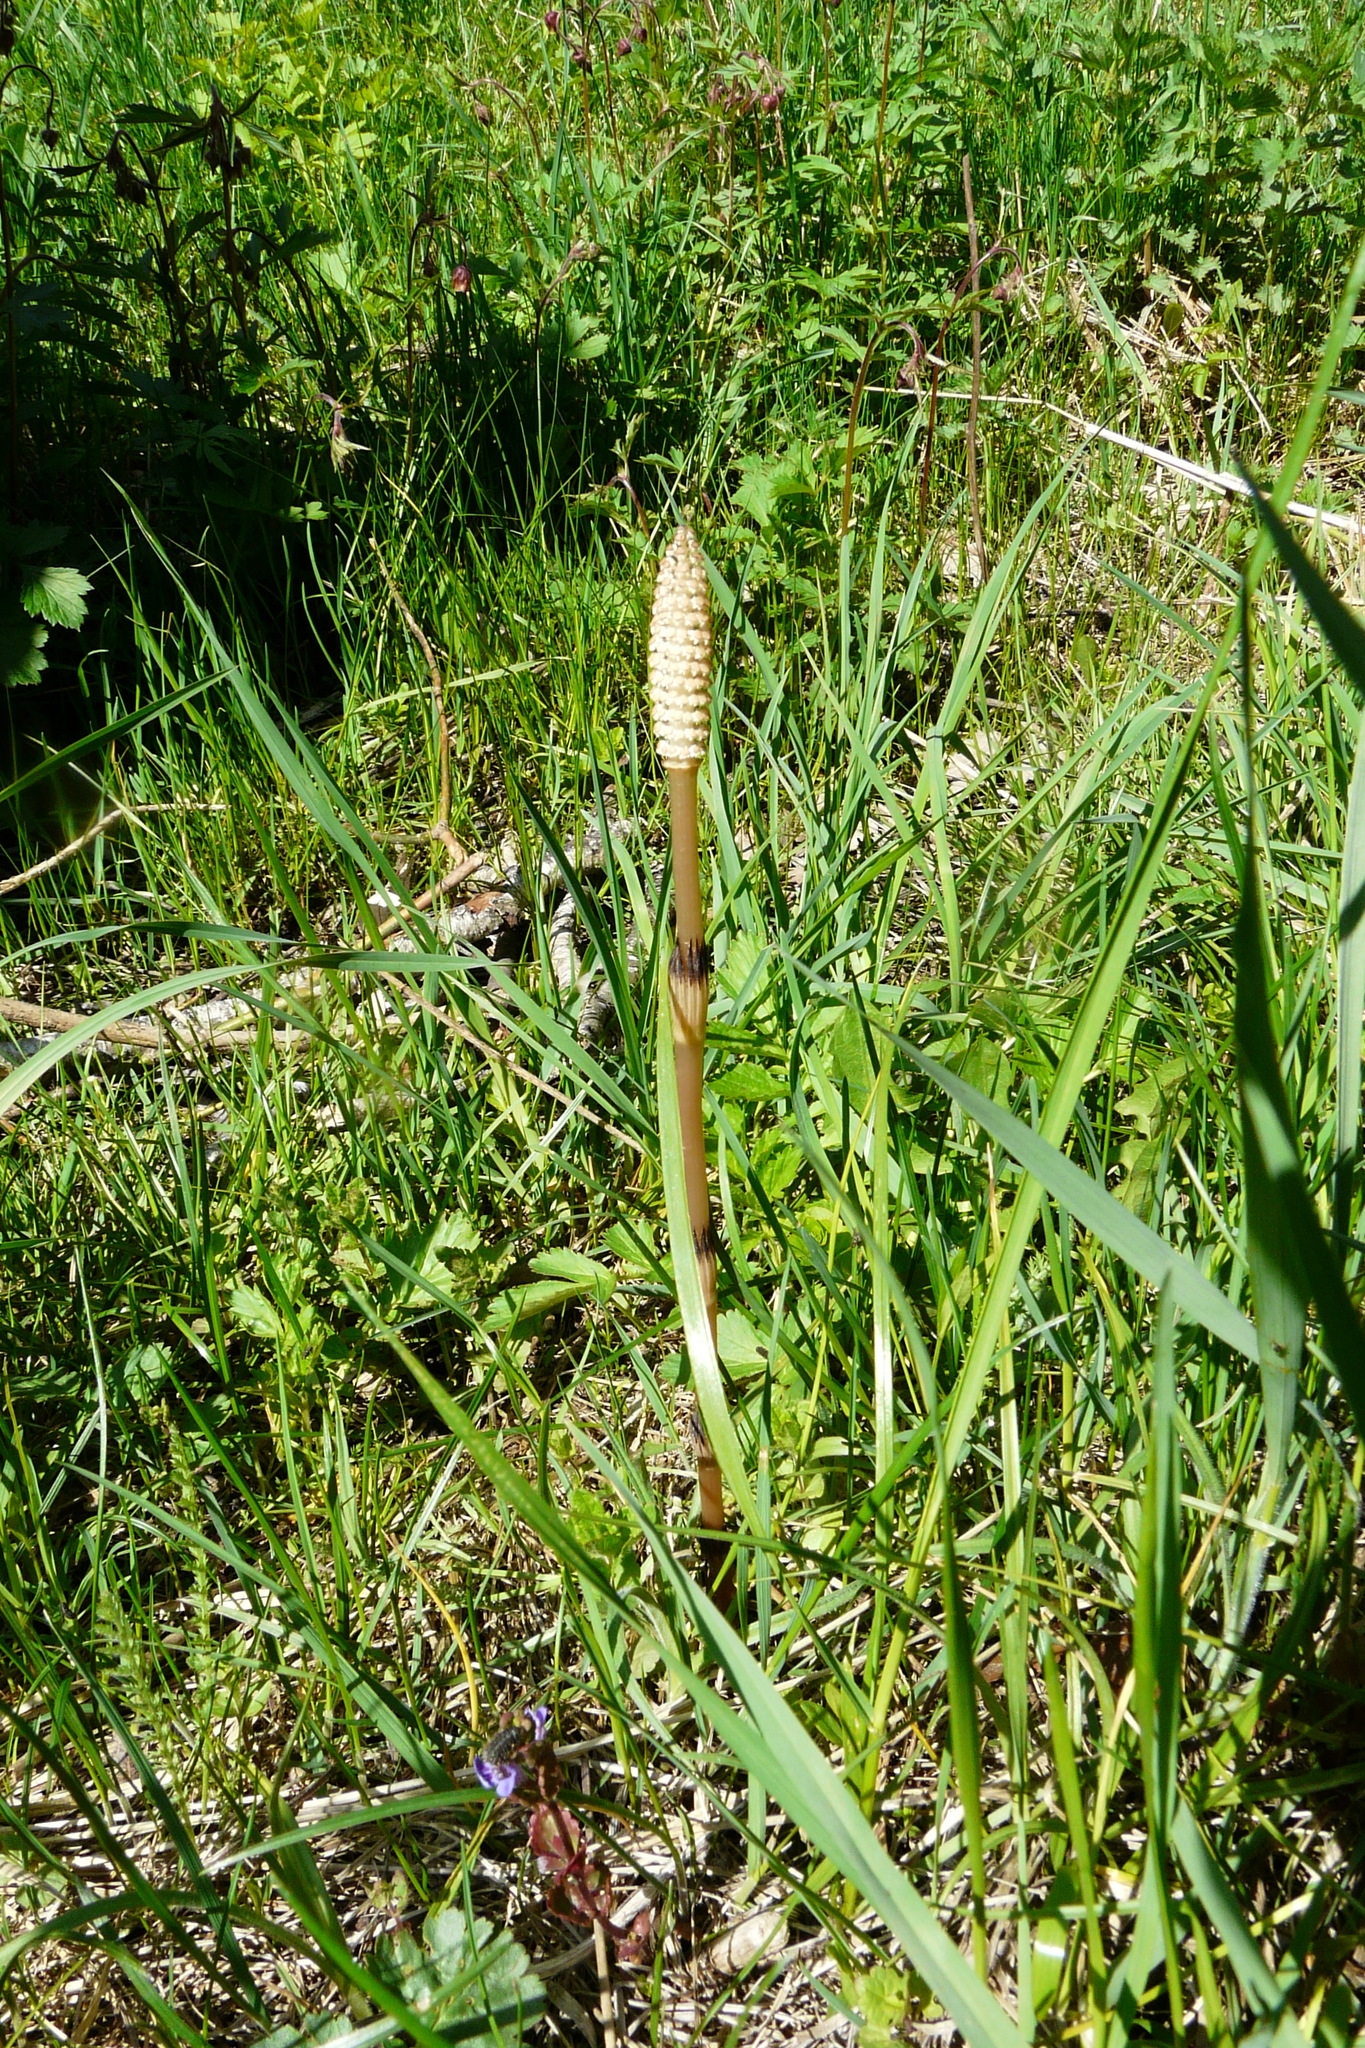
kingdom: Plantae
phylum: Tracheophyta
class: Polypodiopsida
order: Equisetales
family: Equisetaceae
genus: Equisetum
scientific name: Equisetum arvense
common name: Field horsetail
